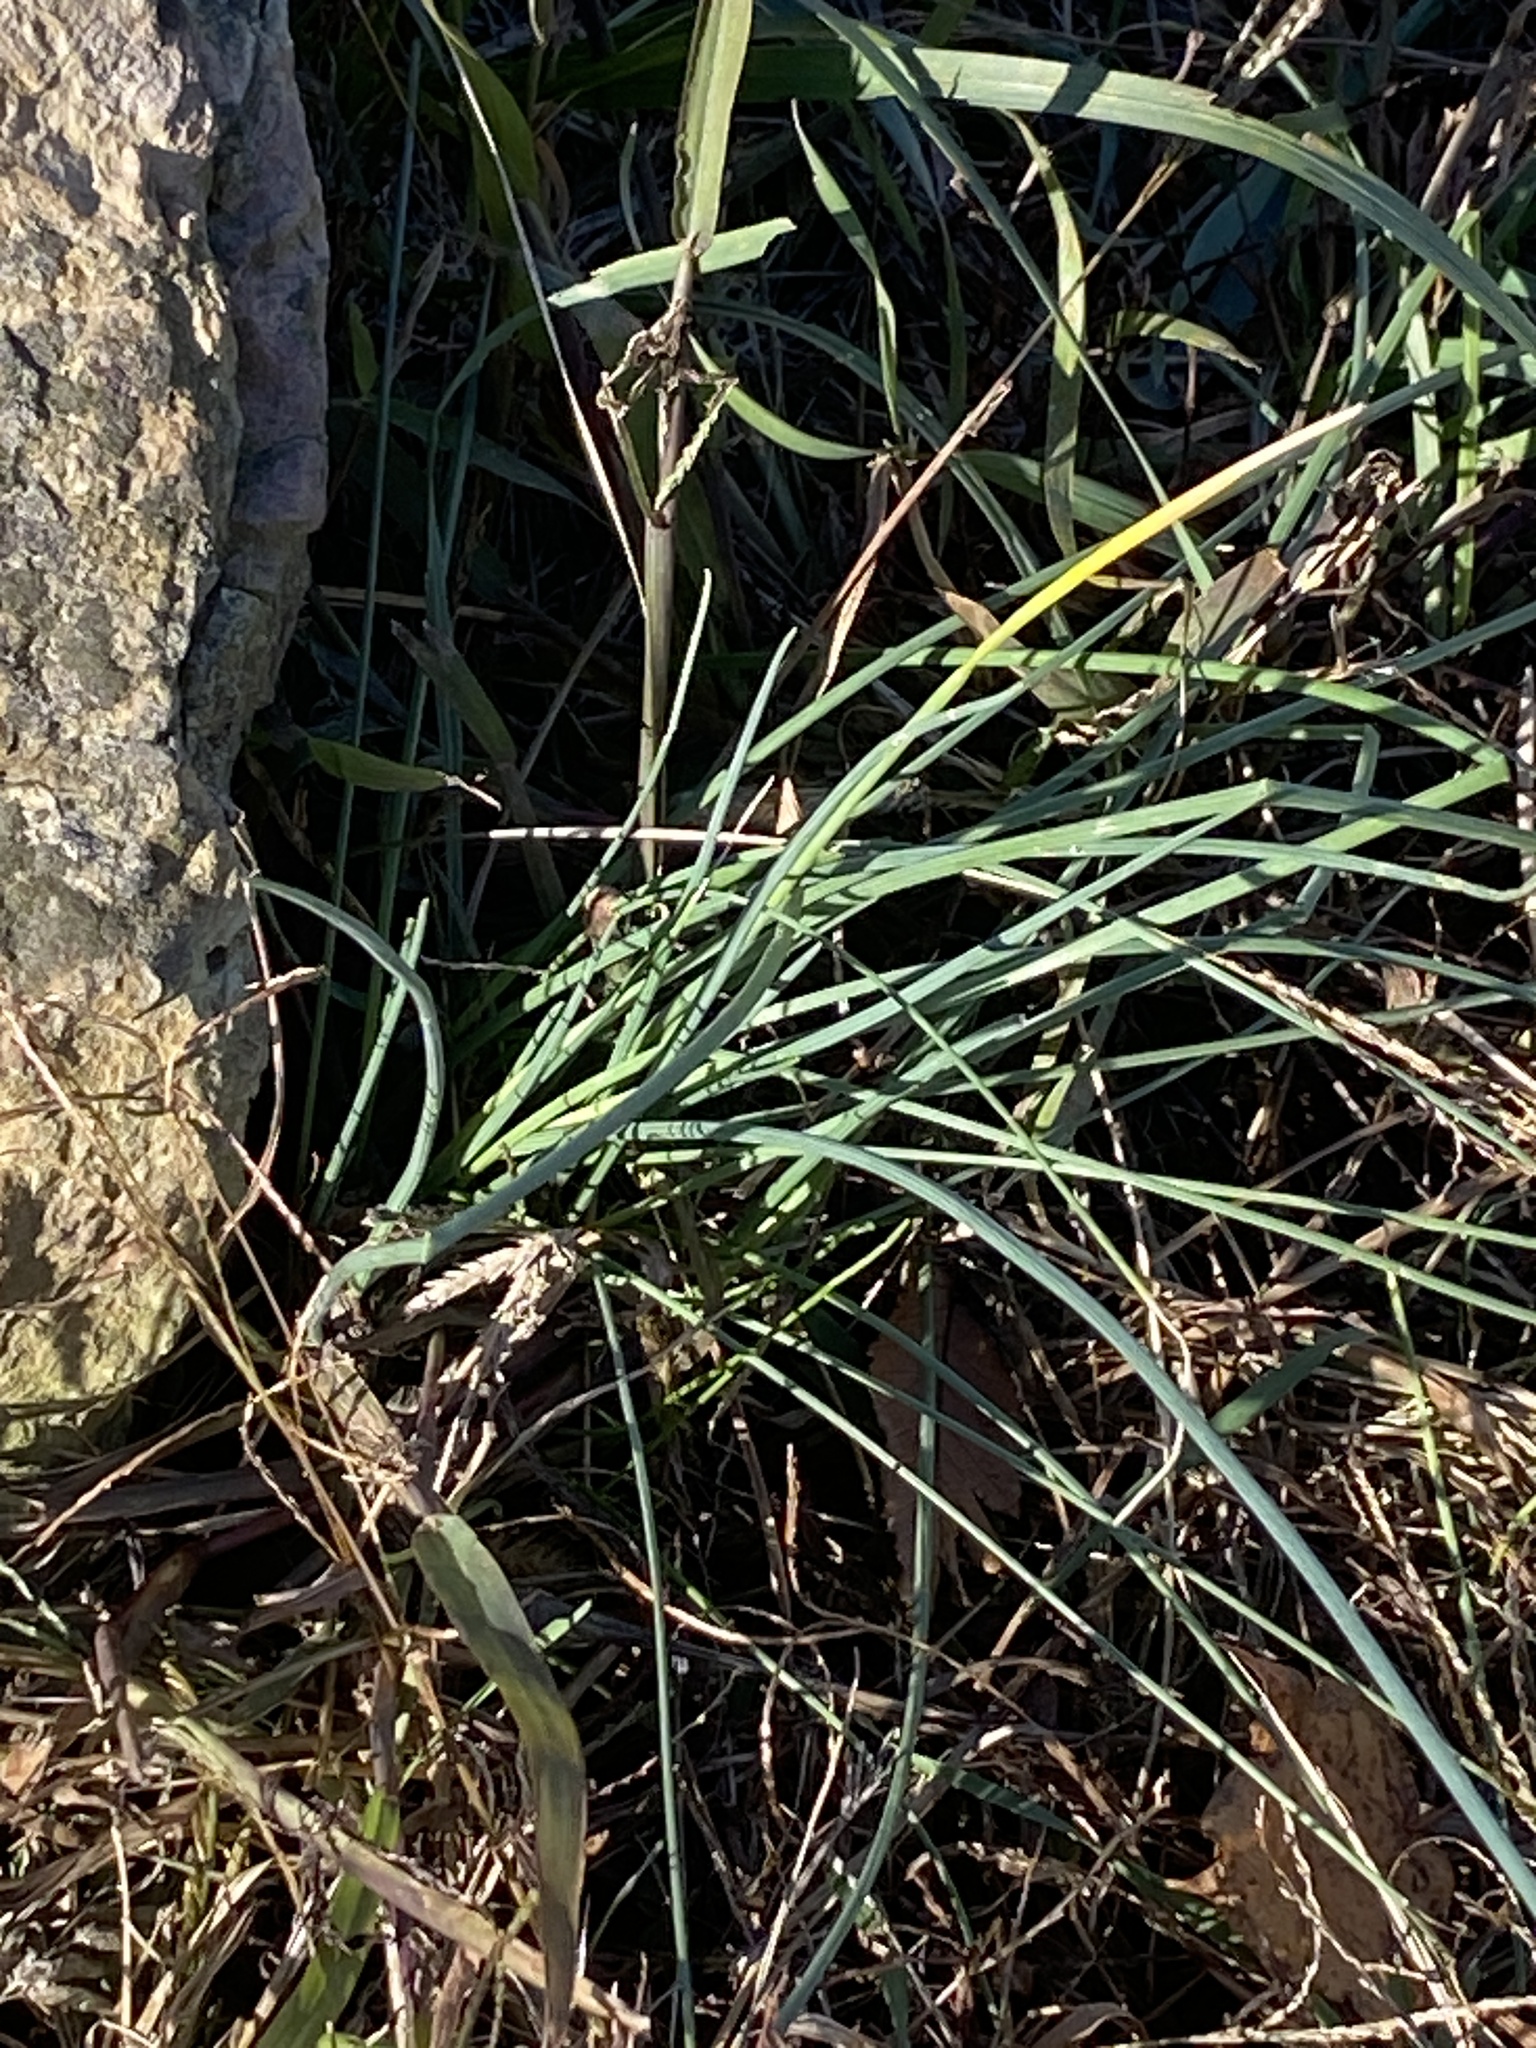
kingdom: Plantae
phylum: Tracheophyta
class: Liliopsida
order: Asparagales
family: Amaryllidaceae
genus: Allium
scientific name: Allium vineale
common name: Crow garlic
